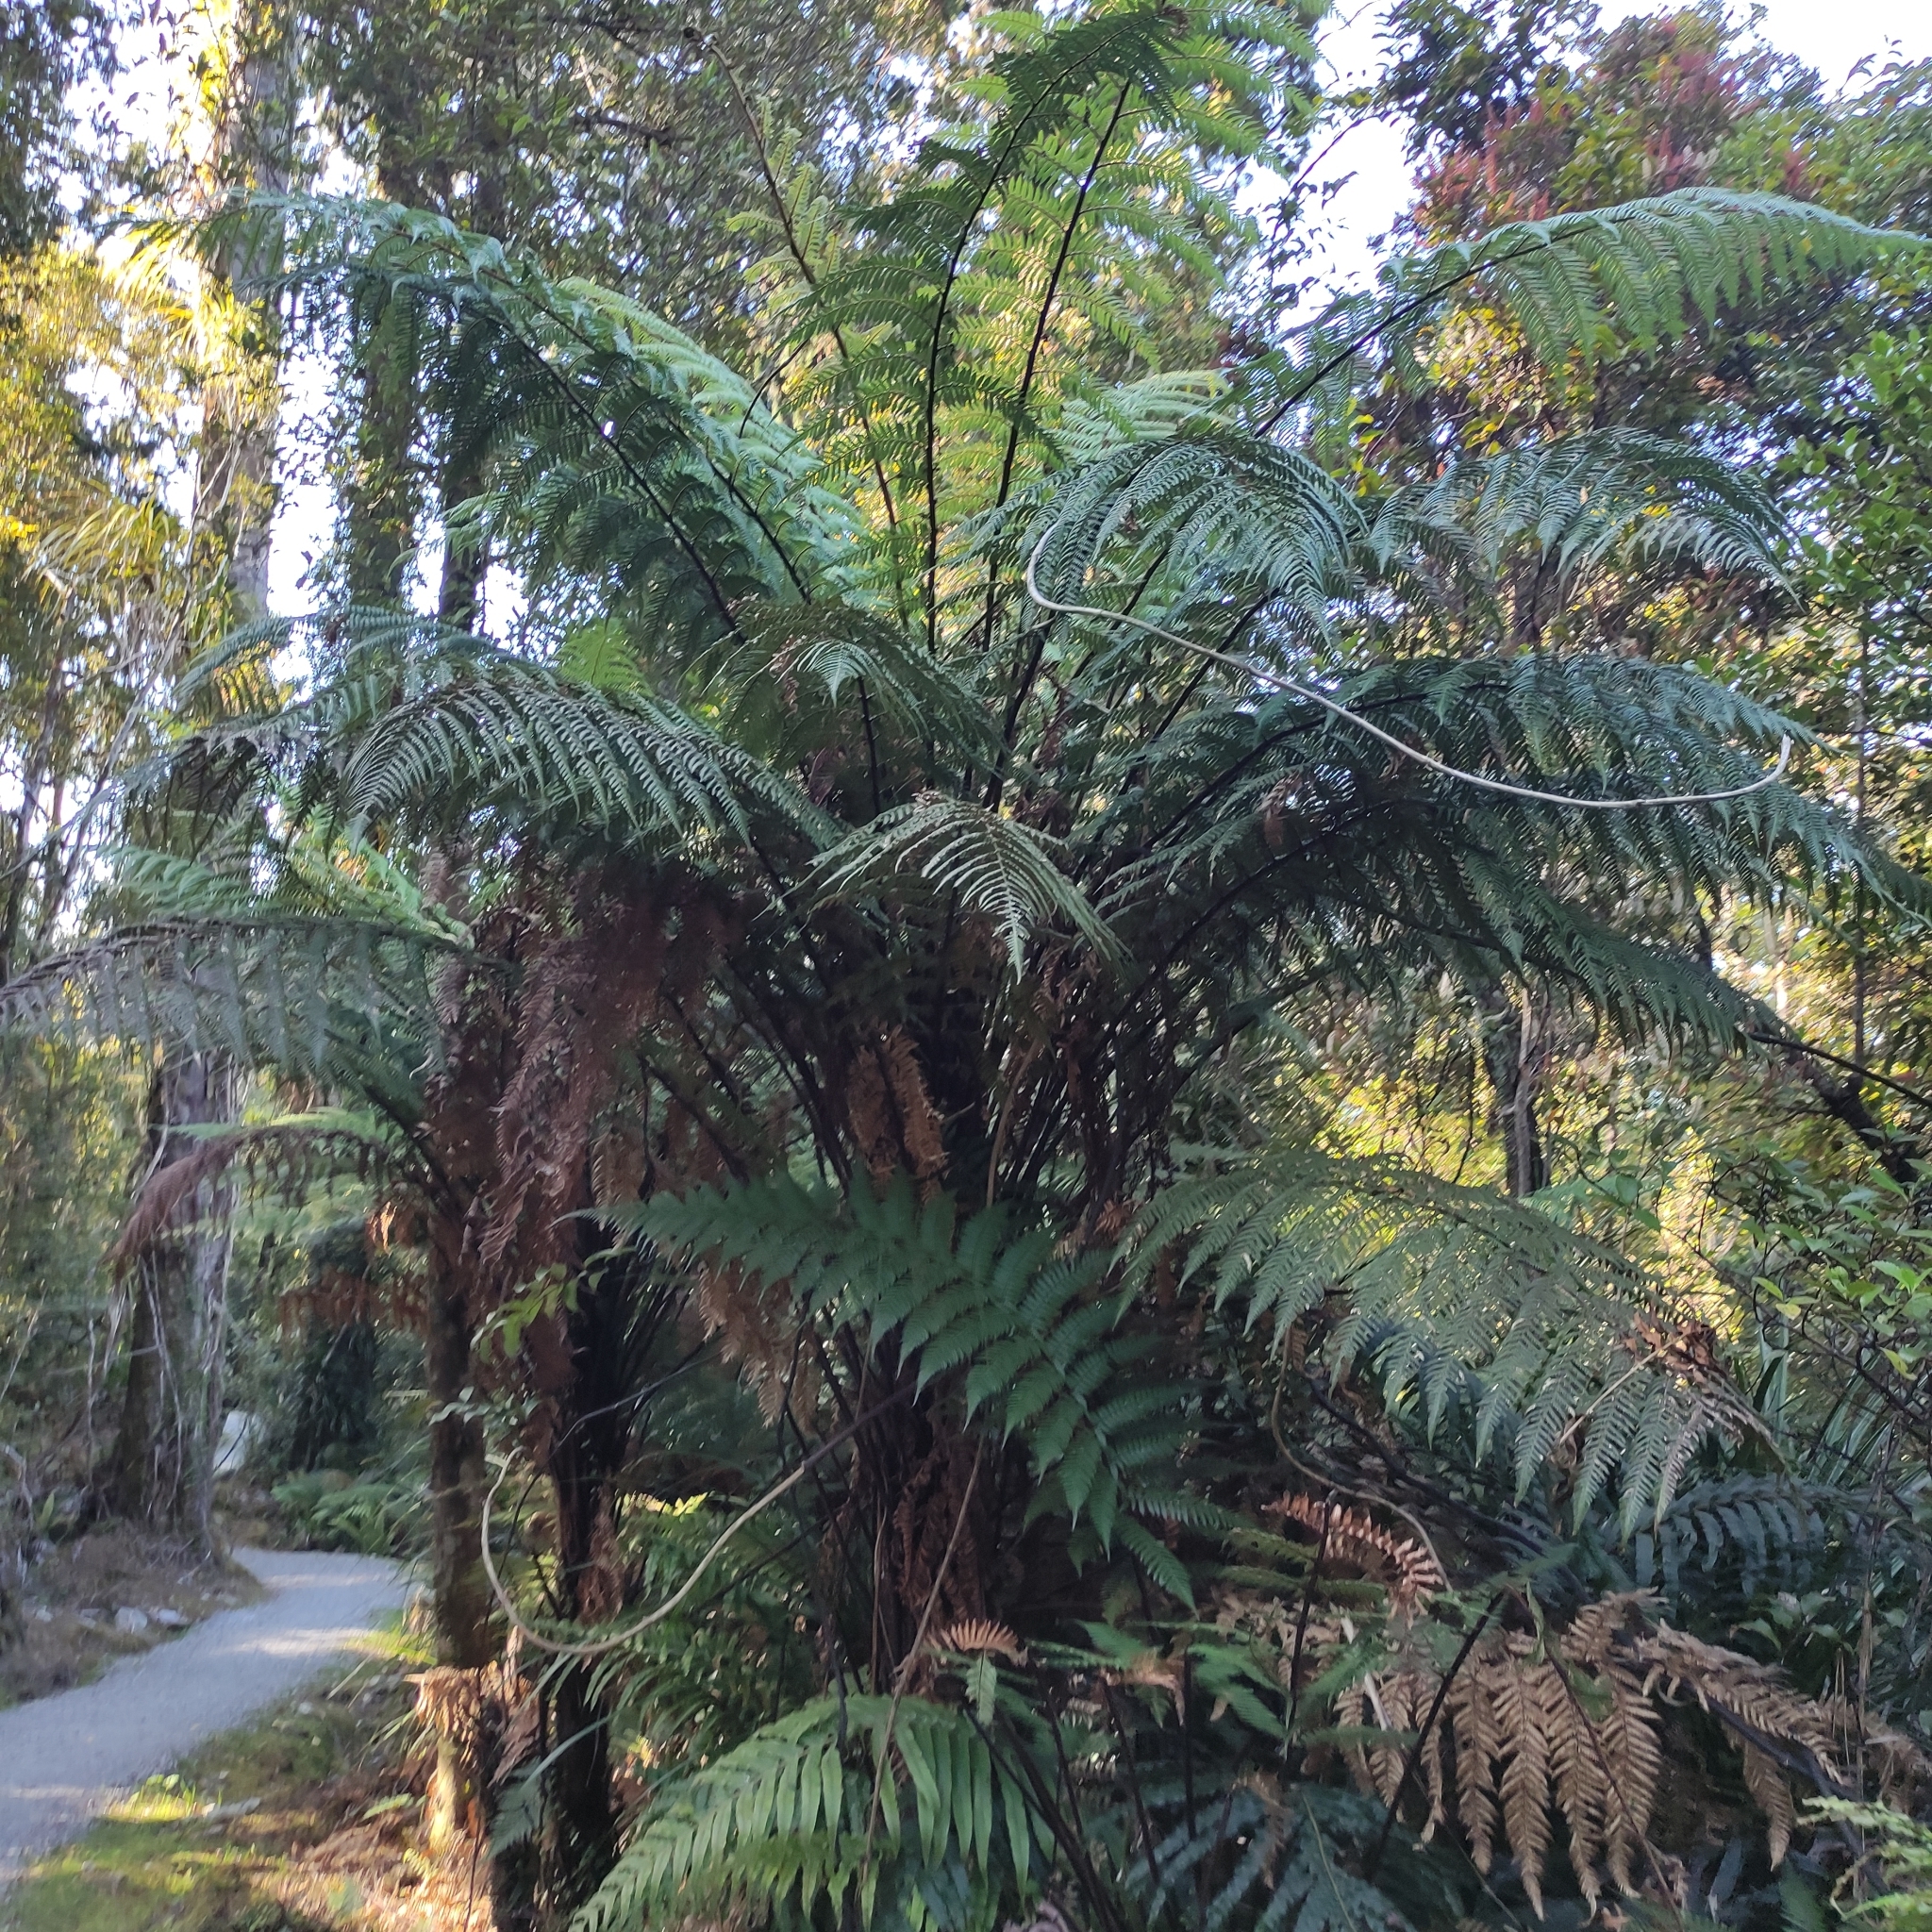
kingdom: Plantae
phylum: Tracheophyta
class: Polypodiopsida
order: Cyatheales
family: Dicksoniaceae
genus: Dicksonia
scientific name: Dicksonia squarrosa
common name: Hard treefern
